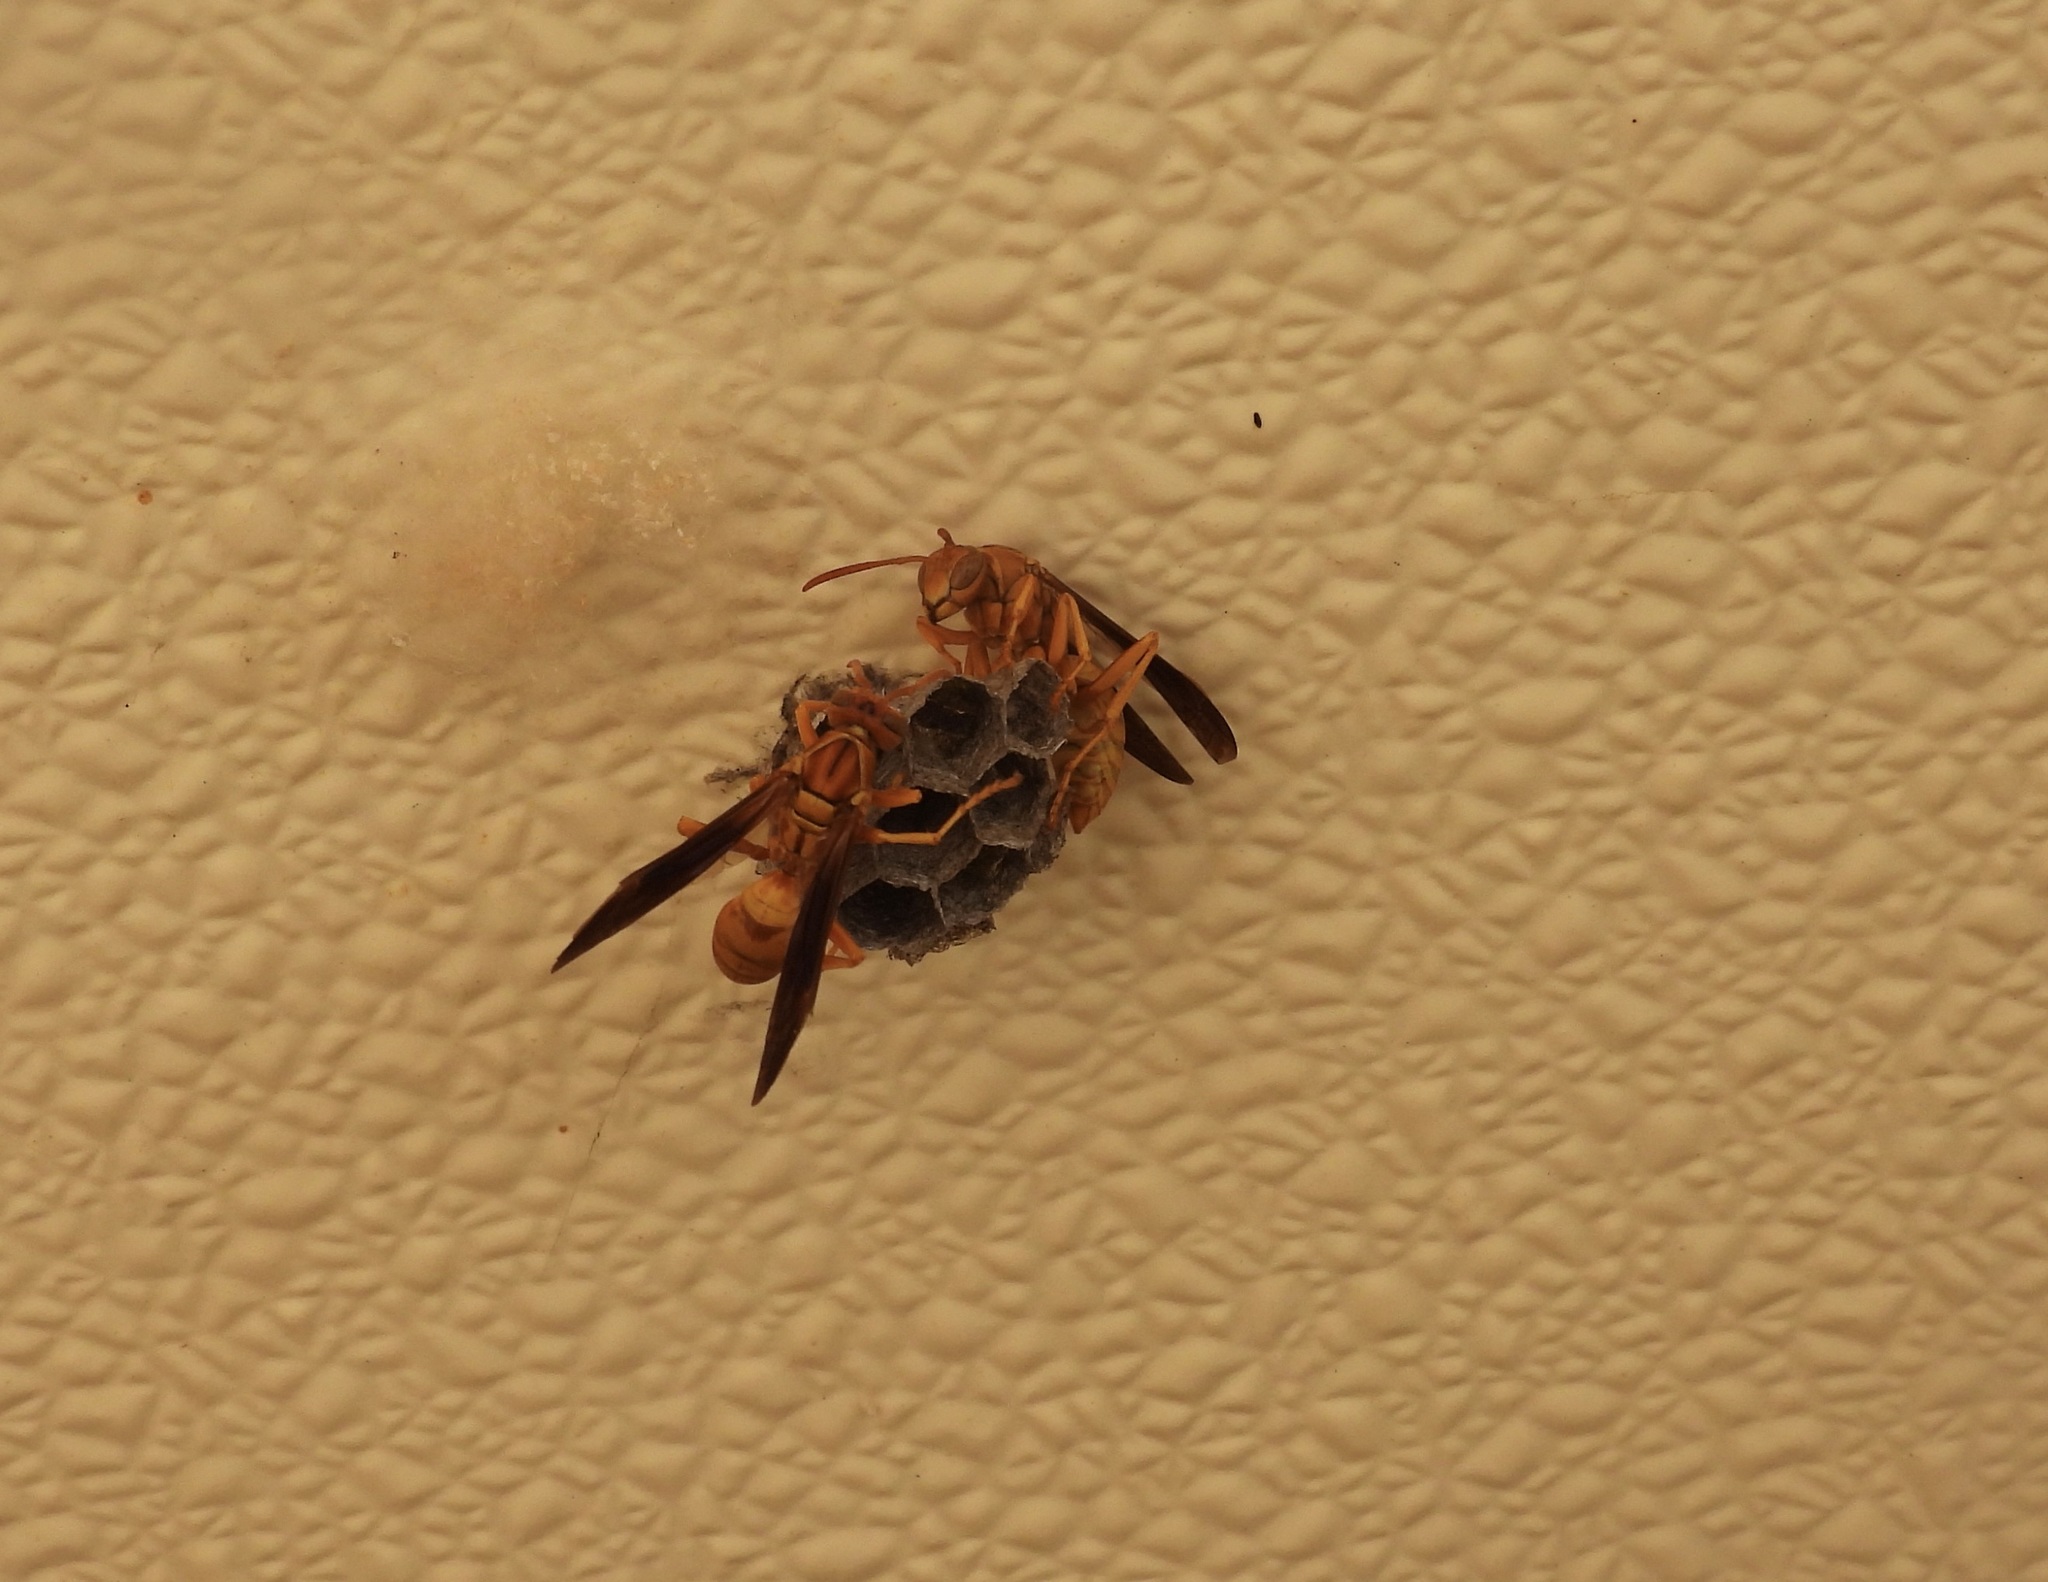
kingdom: Animalia
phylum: Arthropoda
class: Insecta
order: Hymenoptera
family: Eumenidae
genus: Polistes
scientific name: Polistes flavus
